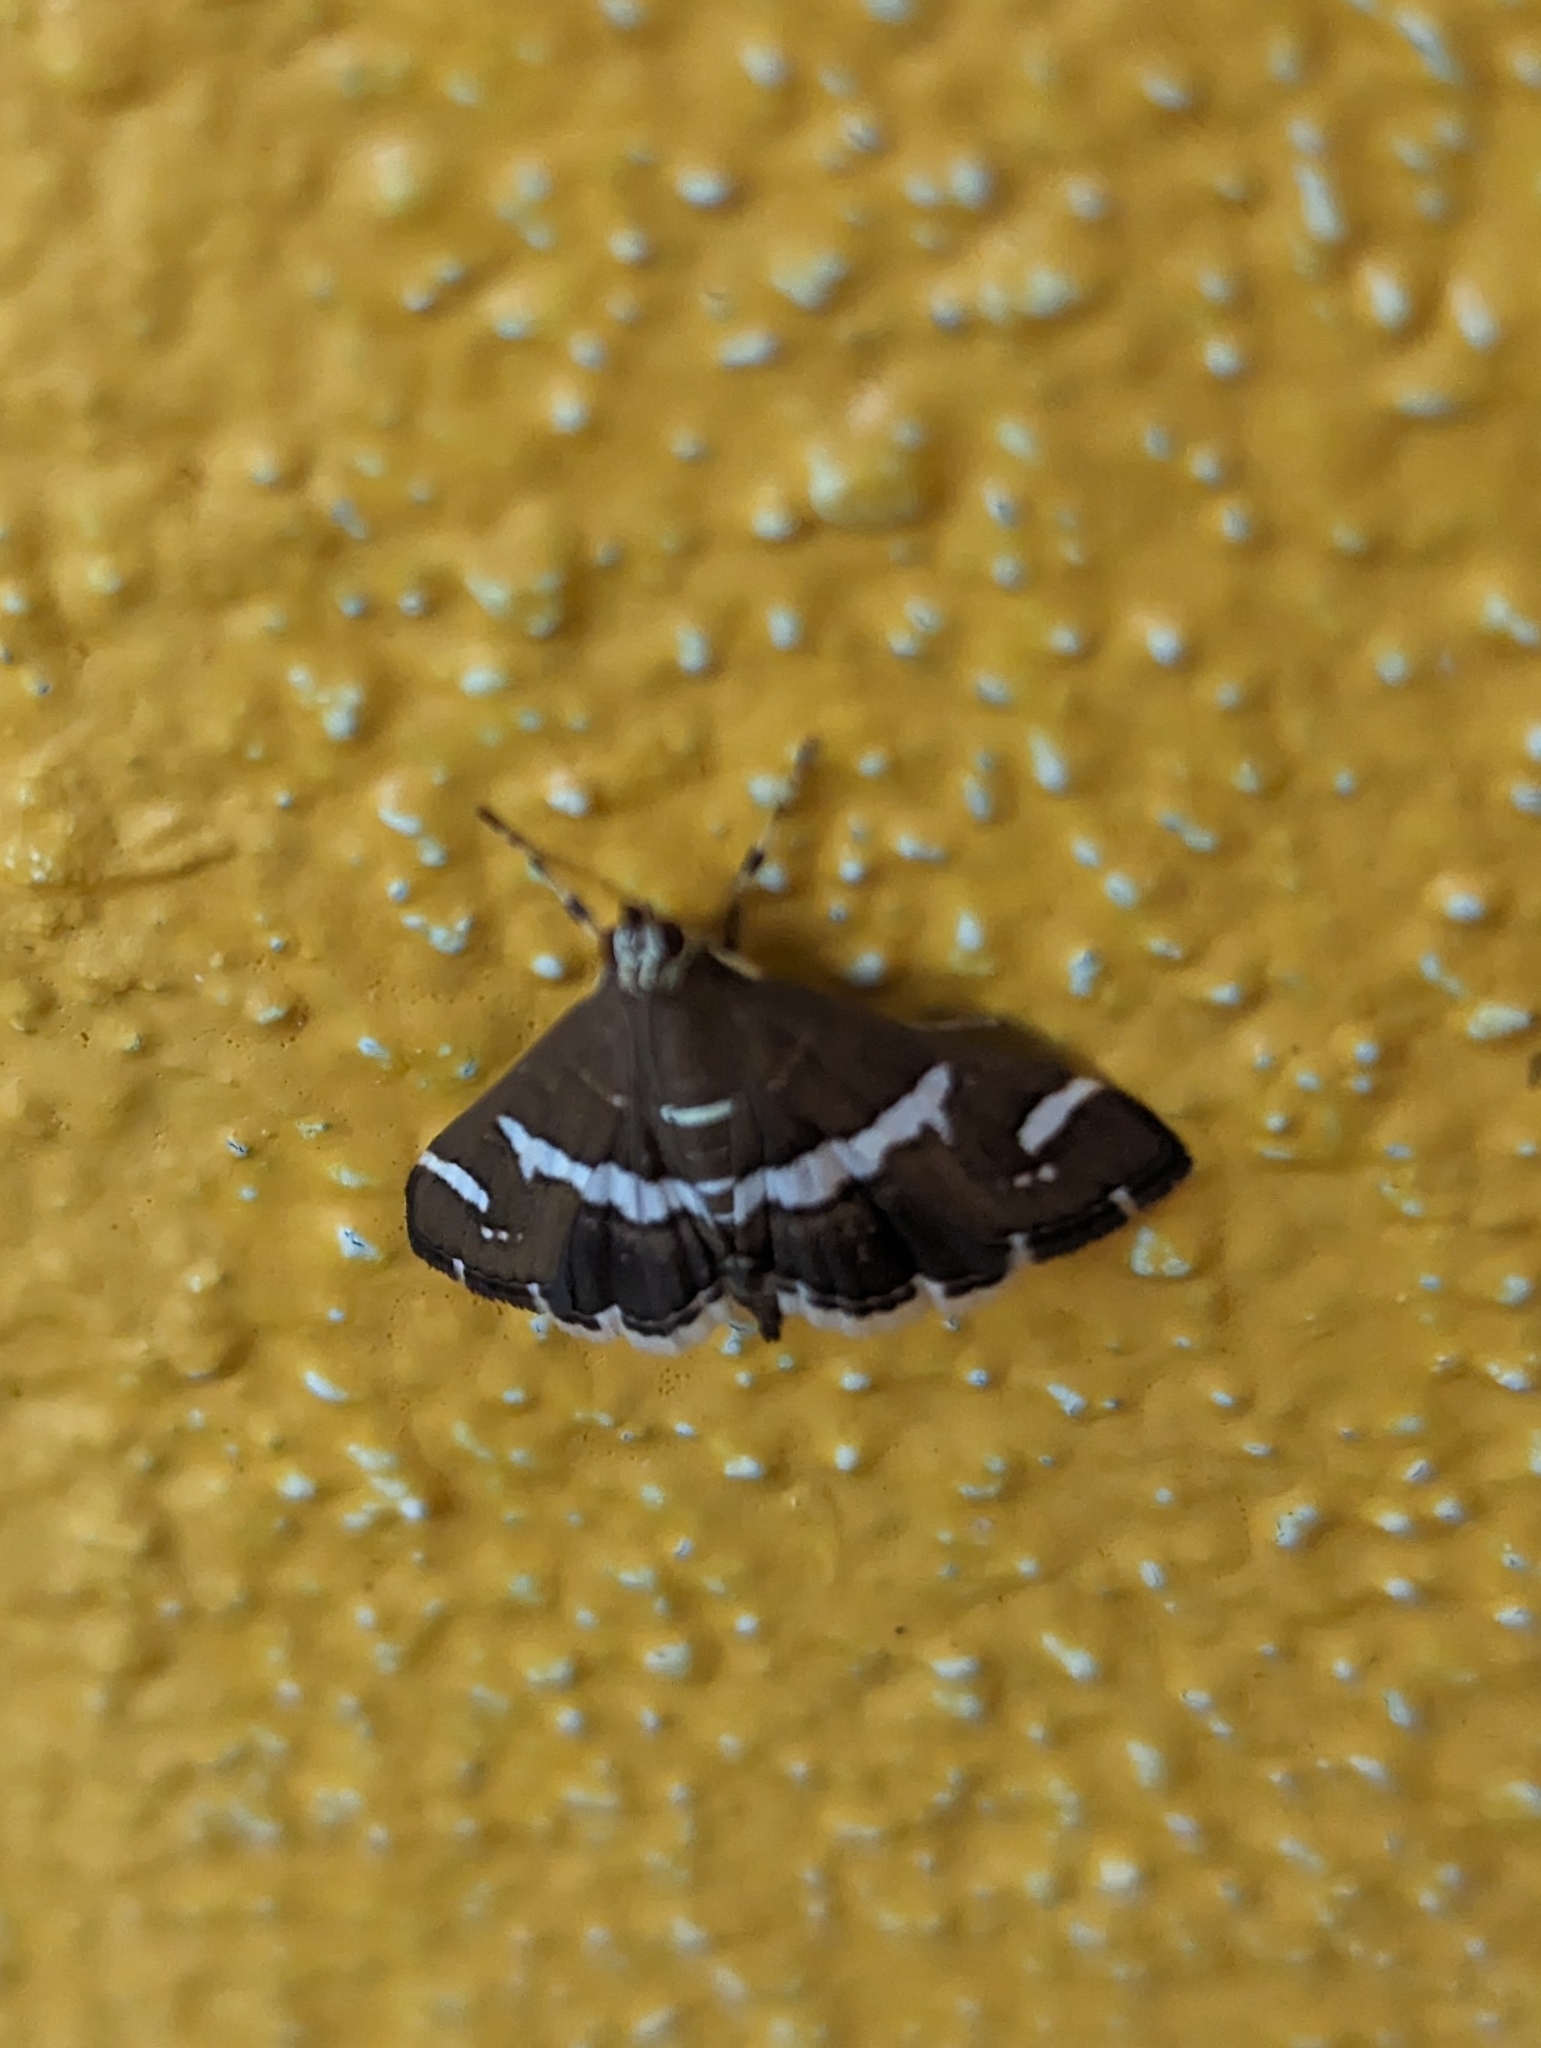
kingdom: Animalia
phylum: Arthropoda
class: Insecta
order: Lepidoptera
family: Crambidae
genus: Spoladea
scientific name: Spoladea recurvalis
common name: Beet webworm moth
